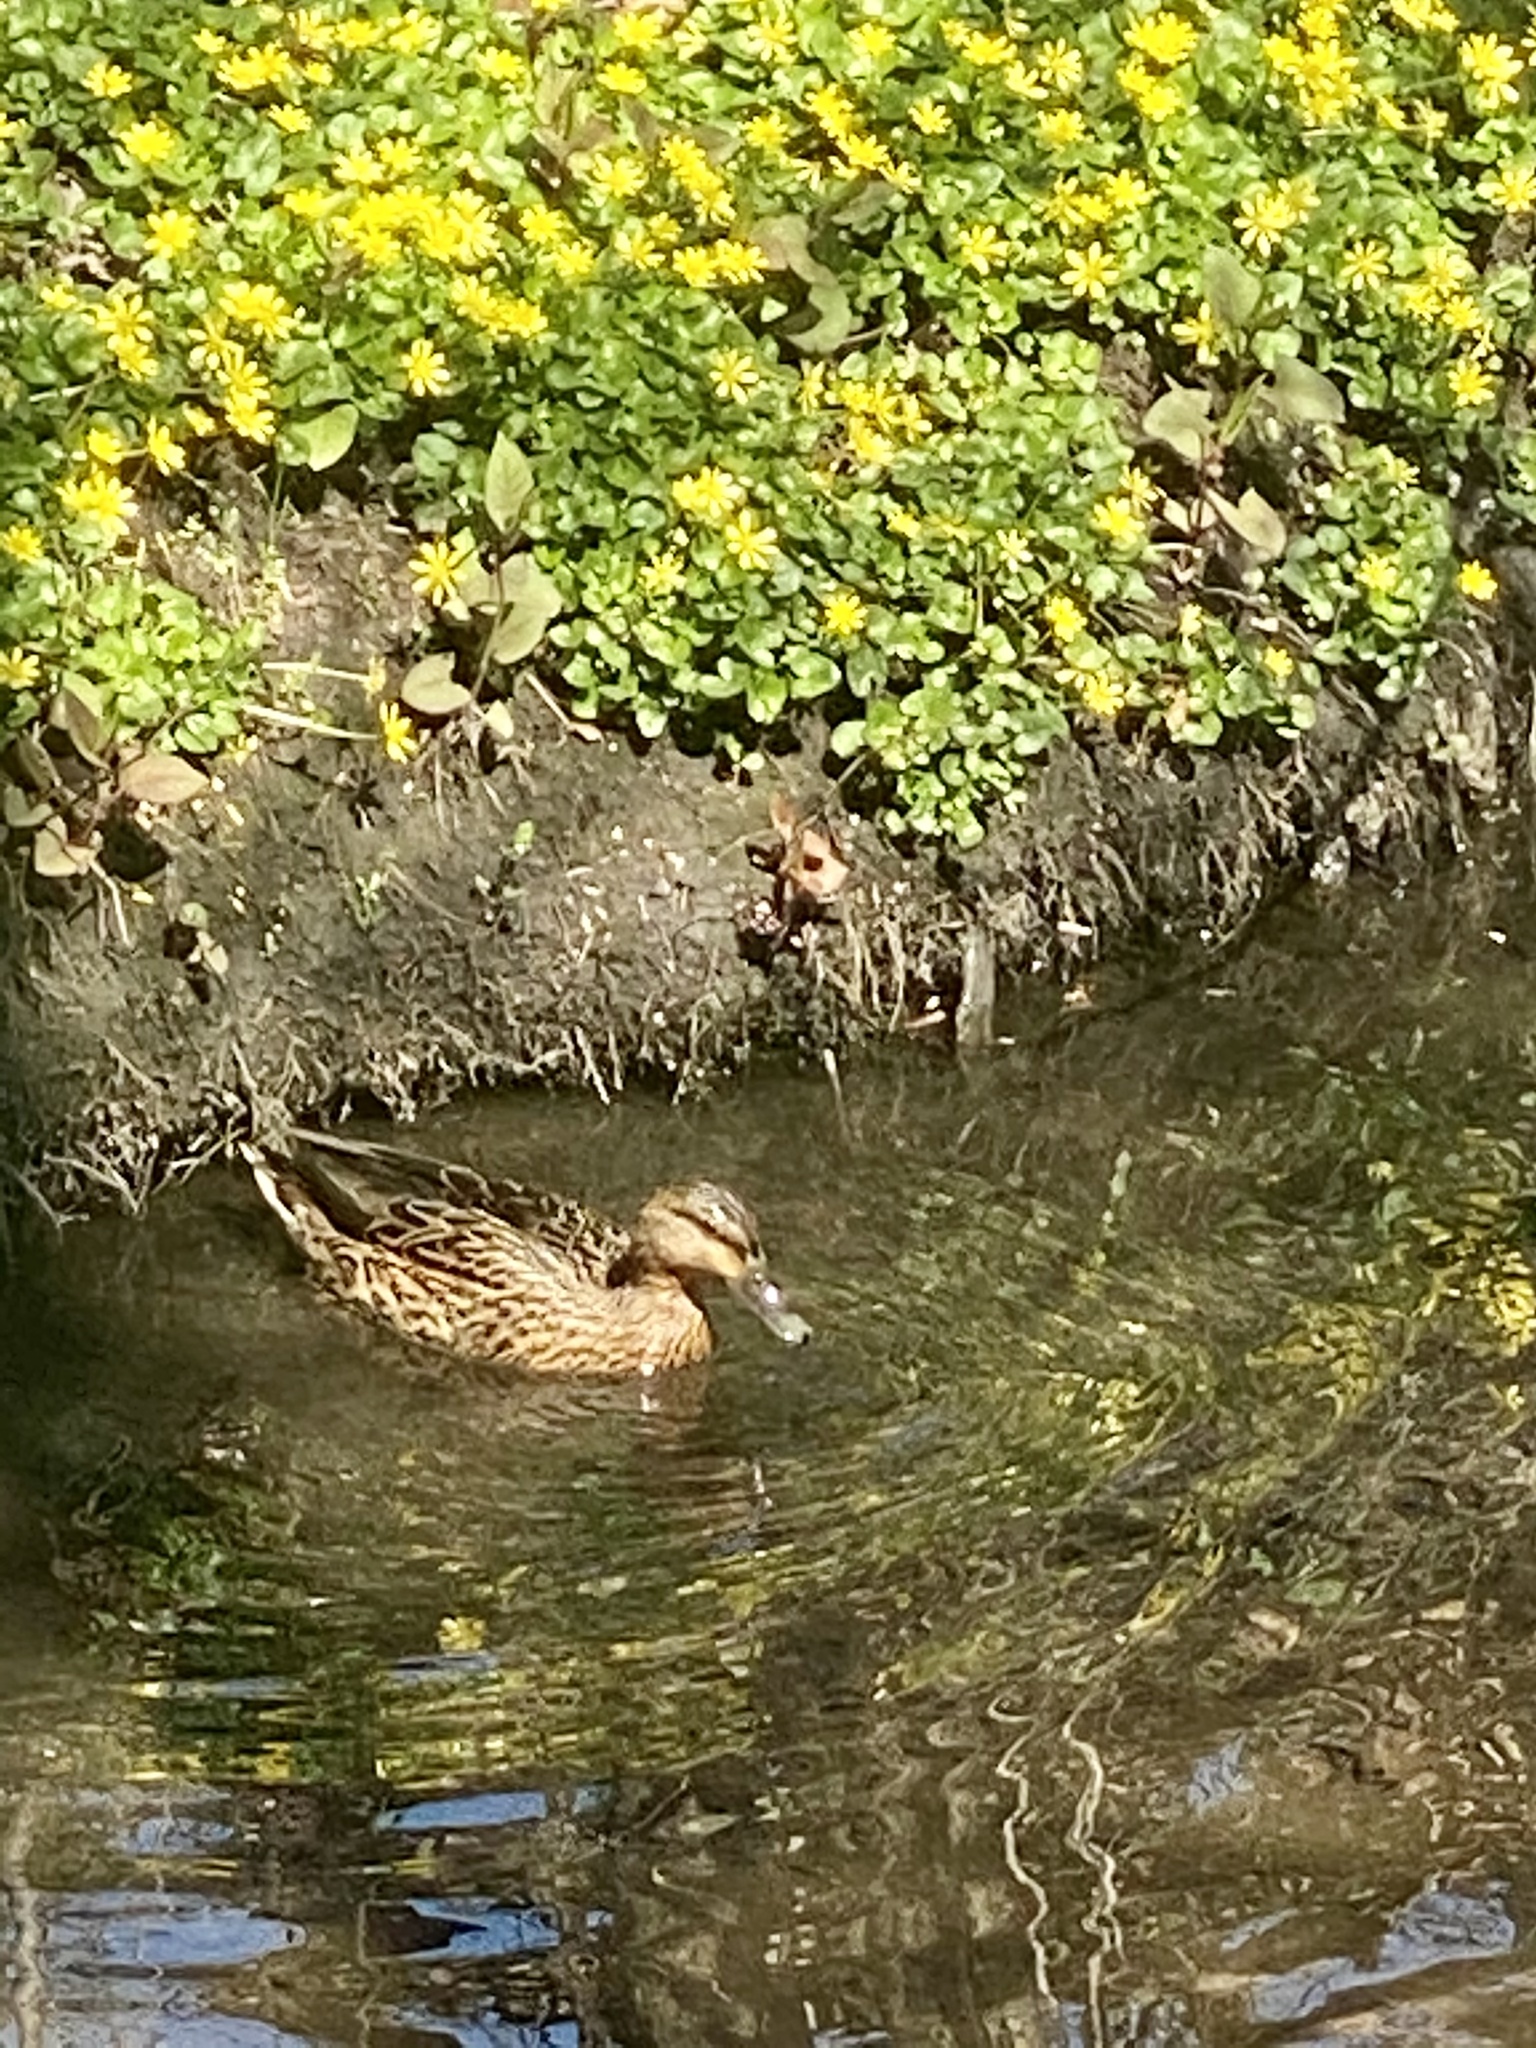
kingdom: Animalia
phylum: Chordata
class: Aves
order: Anseriformes
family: Anatidae
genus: Anas
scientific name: Anas platyrhynchos
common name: Mallard
